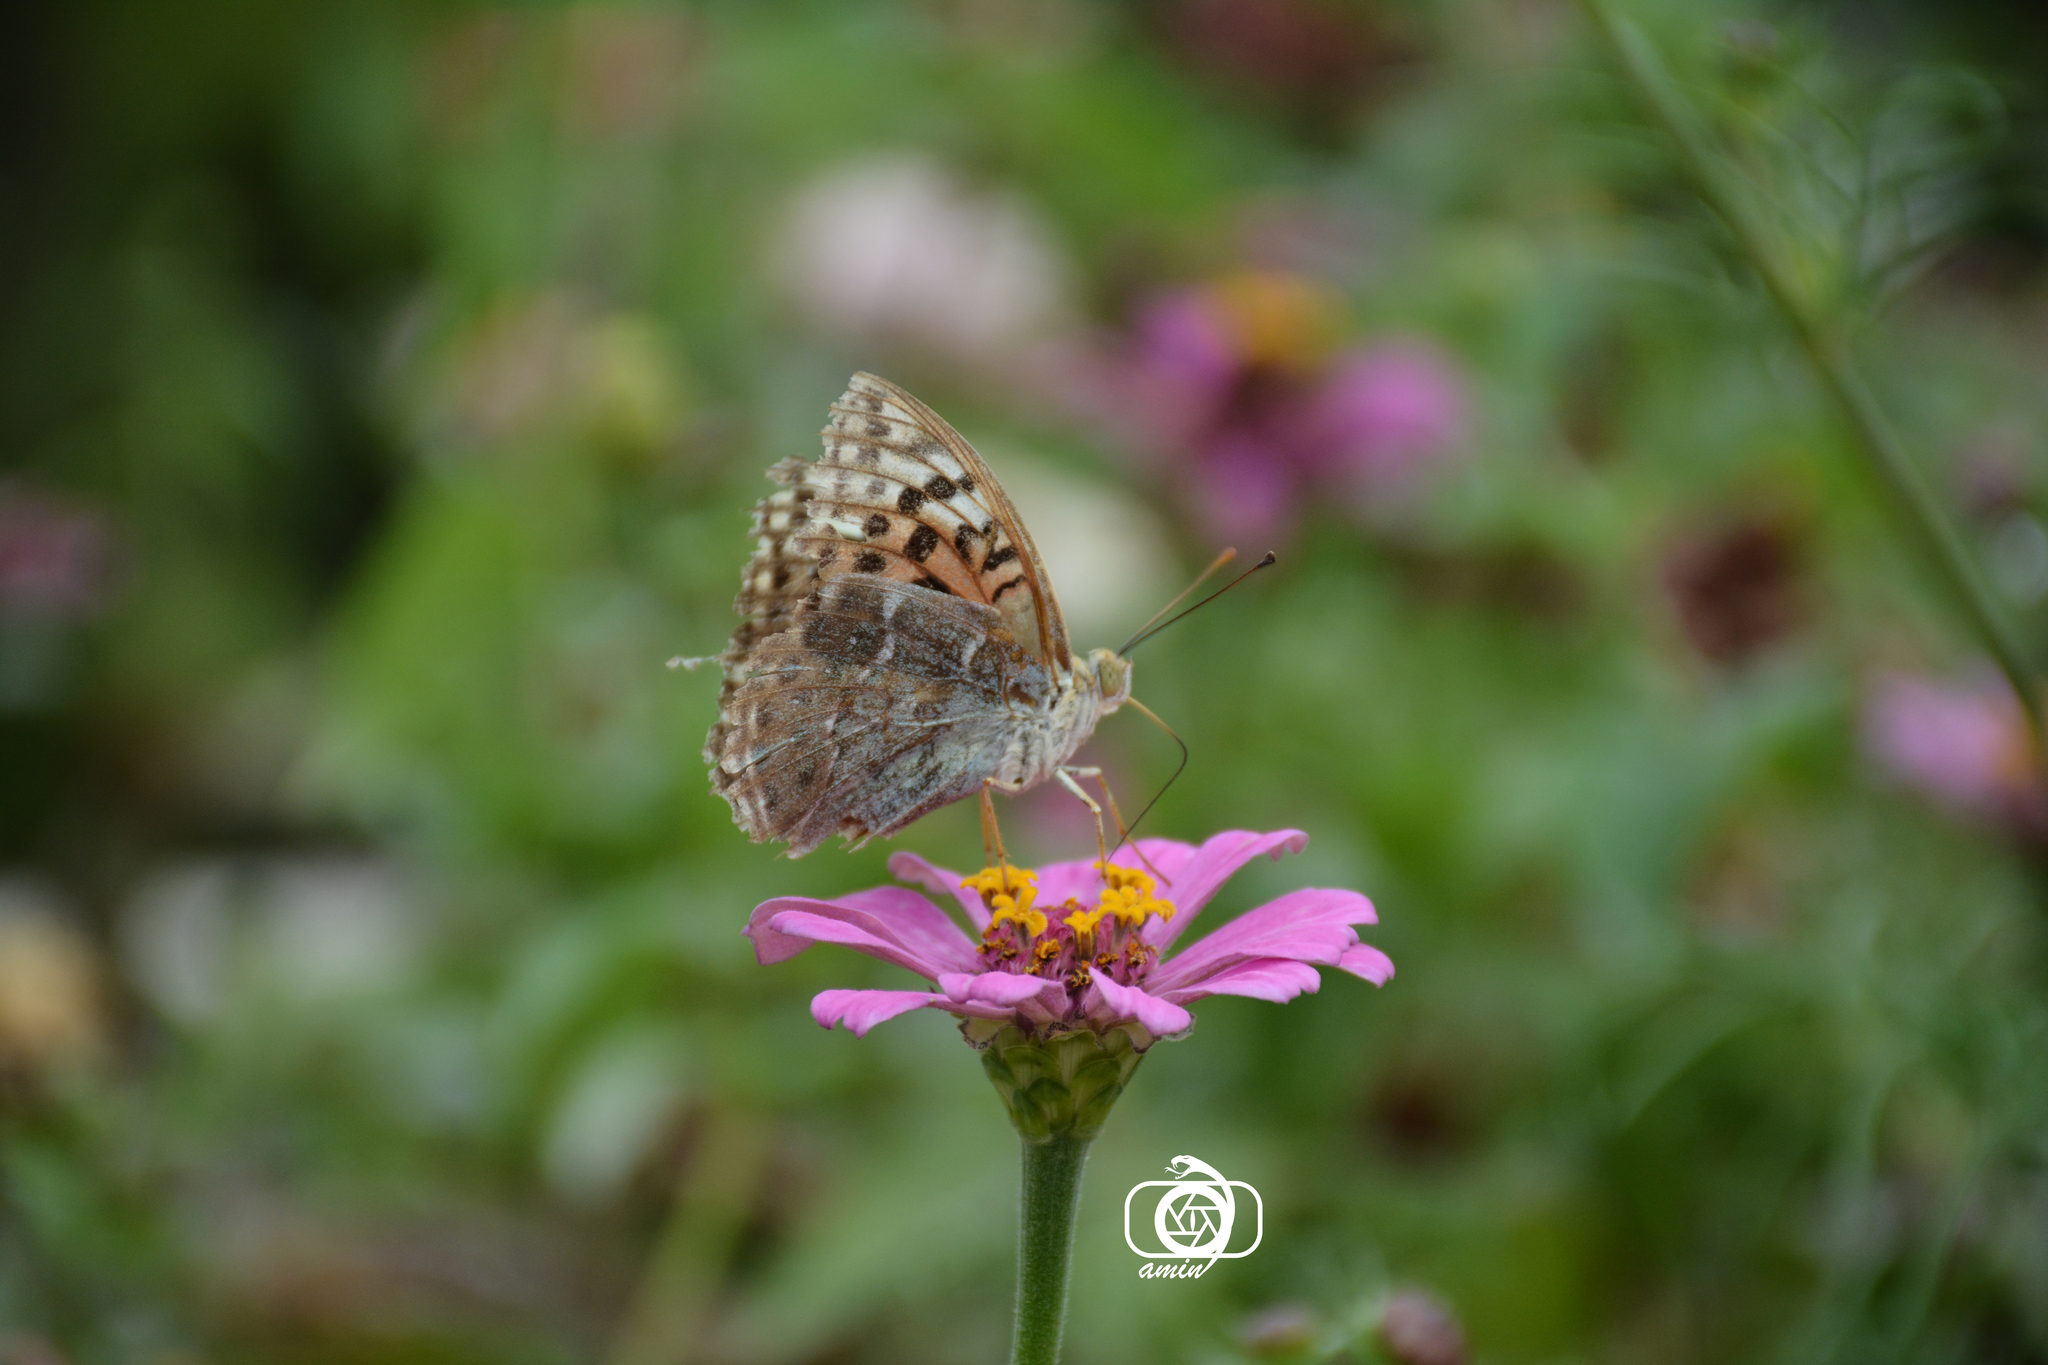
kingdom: Animalia
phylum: Arthropoda
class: Insecta
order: Lepidoptera
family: Nymphalidae
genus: Damora
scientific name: Damora pandora
